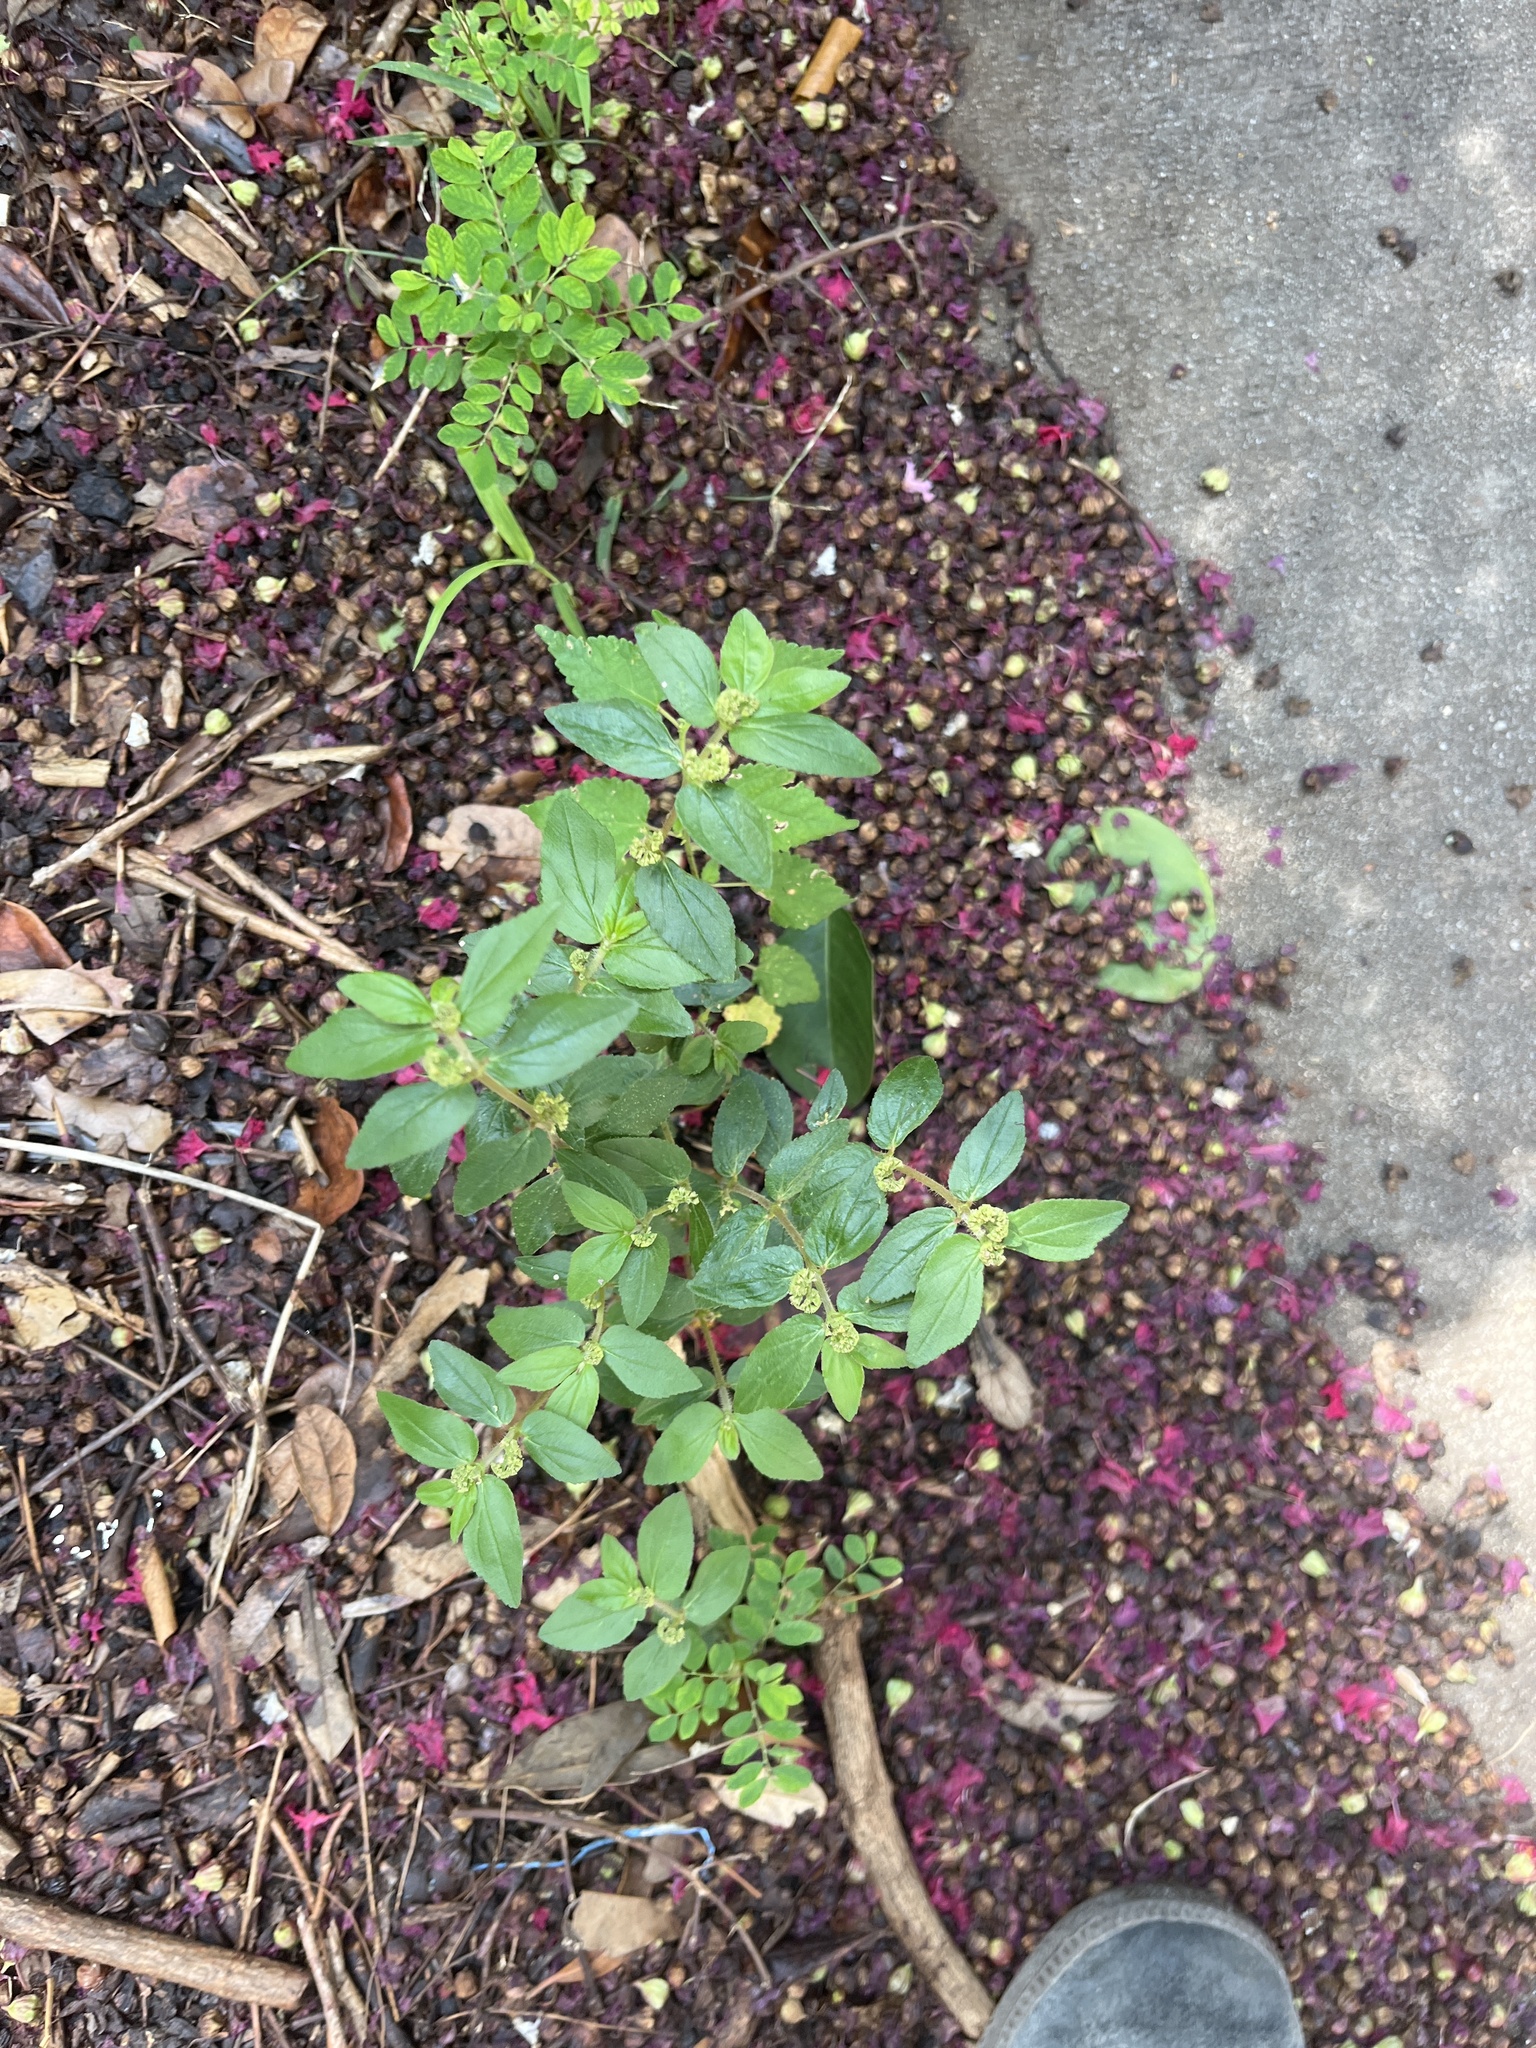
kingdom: Plantae
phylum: Tracheophyta
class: Magnoliopsida
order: Malpighiales
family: Euphorbiaceae
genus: Euphorbia
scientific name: Euphorbia hirta
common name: Pillpod sandmat
